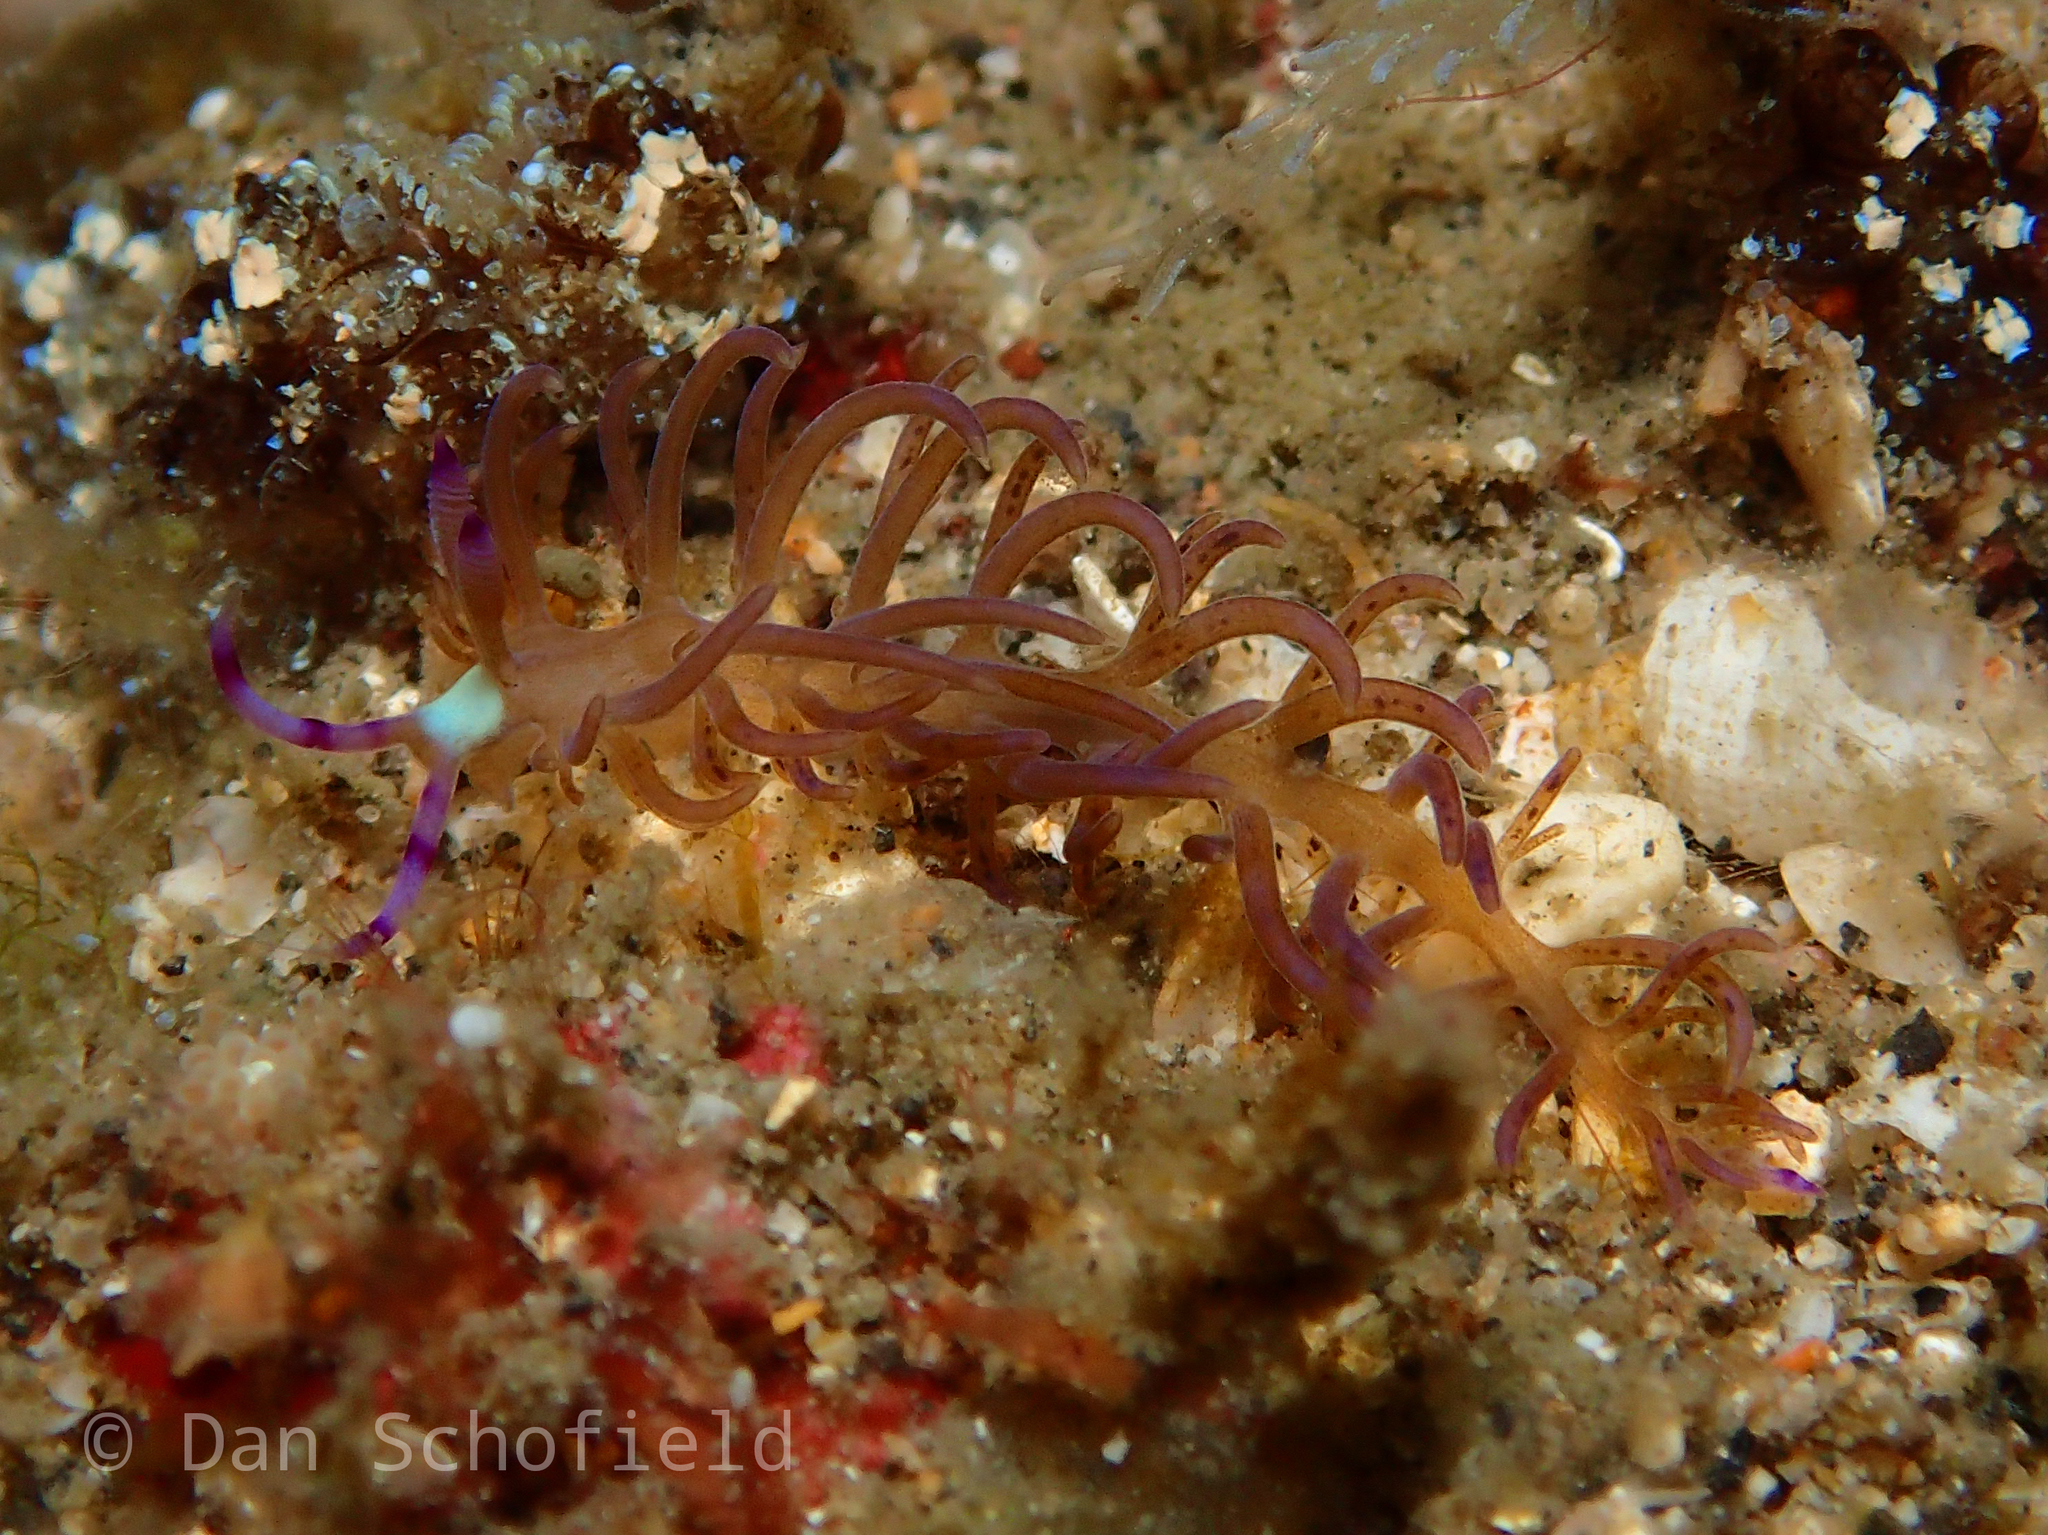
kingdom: Animalia
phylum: Mollusca
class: Gastropoda
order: Nudibranchia
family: Facelinidae
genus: Pteraeolidia
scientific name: Pteraeolidia semperi
